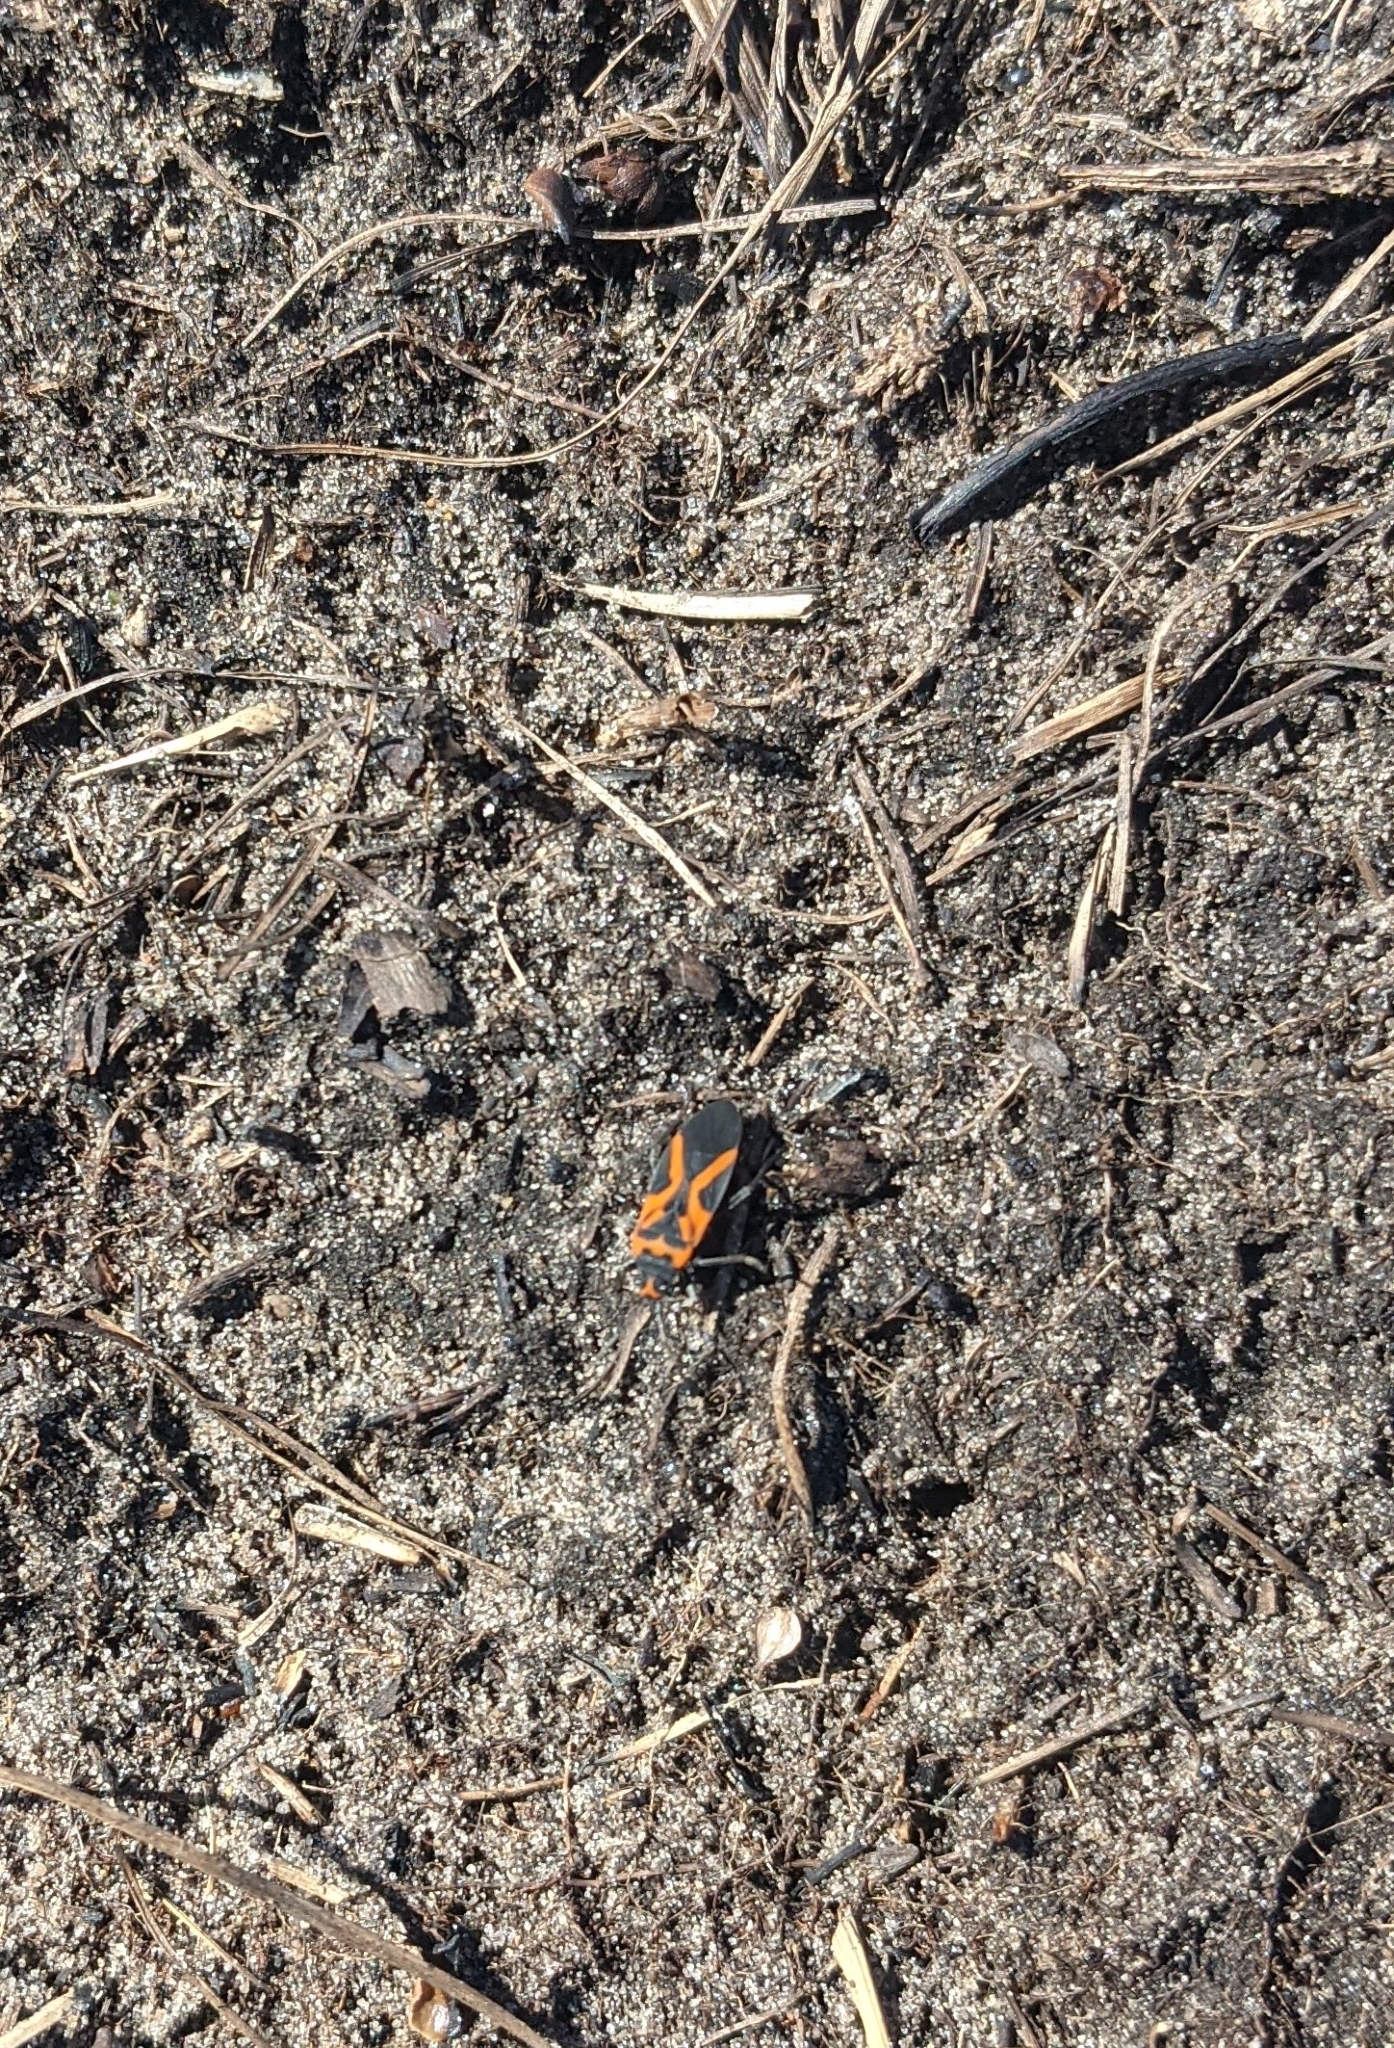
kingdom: Animalia
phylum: Arthropoda
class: Insecta
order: Hemiptera
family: Lygaeidae
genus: Lygaeus
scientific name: Lygaeus turcicus
